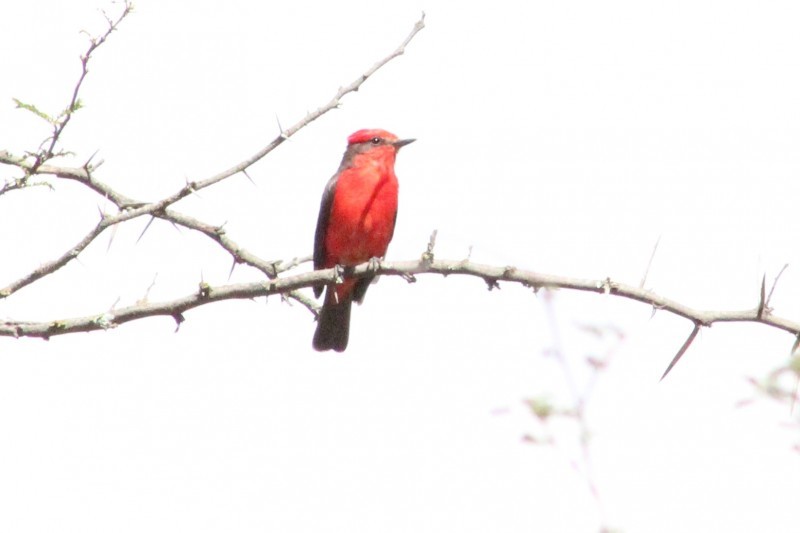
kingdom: Animalia
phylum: Chordata
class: Aves
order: Passeriformes
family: Tyrannidae
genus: Pyrocephalus
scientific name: Pyrocephalus rubinus
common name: Vermilion flycatcher
